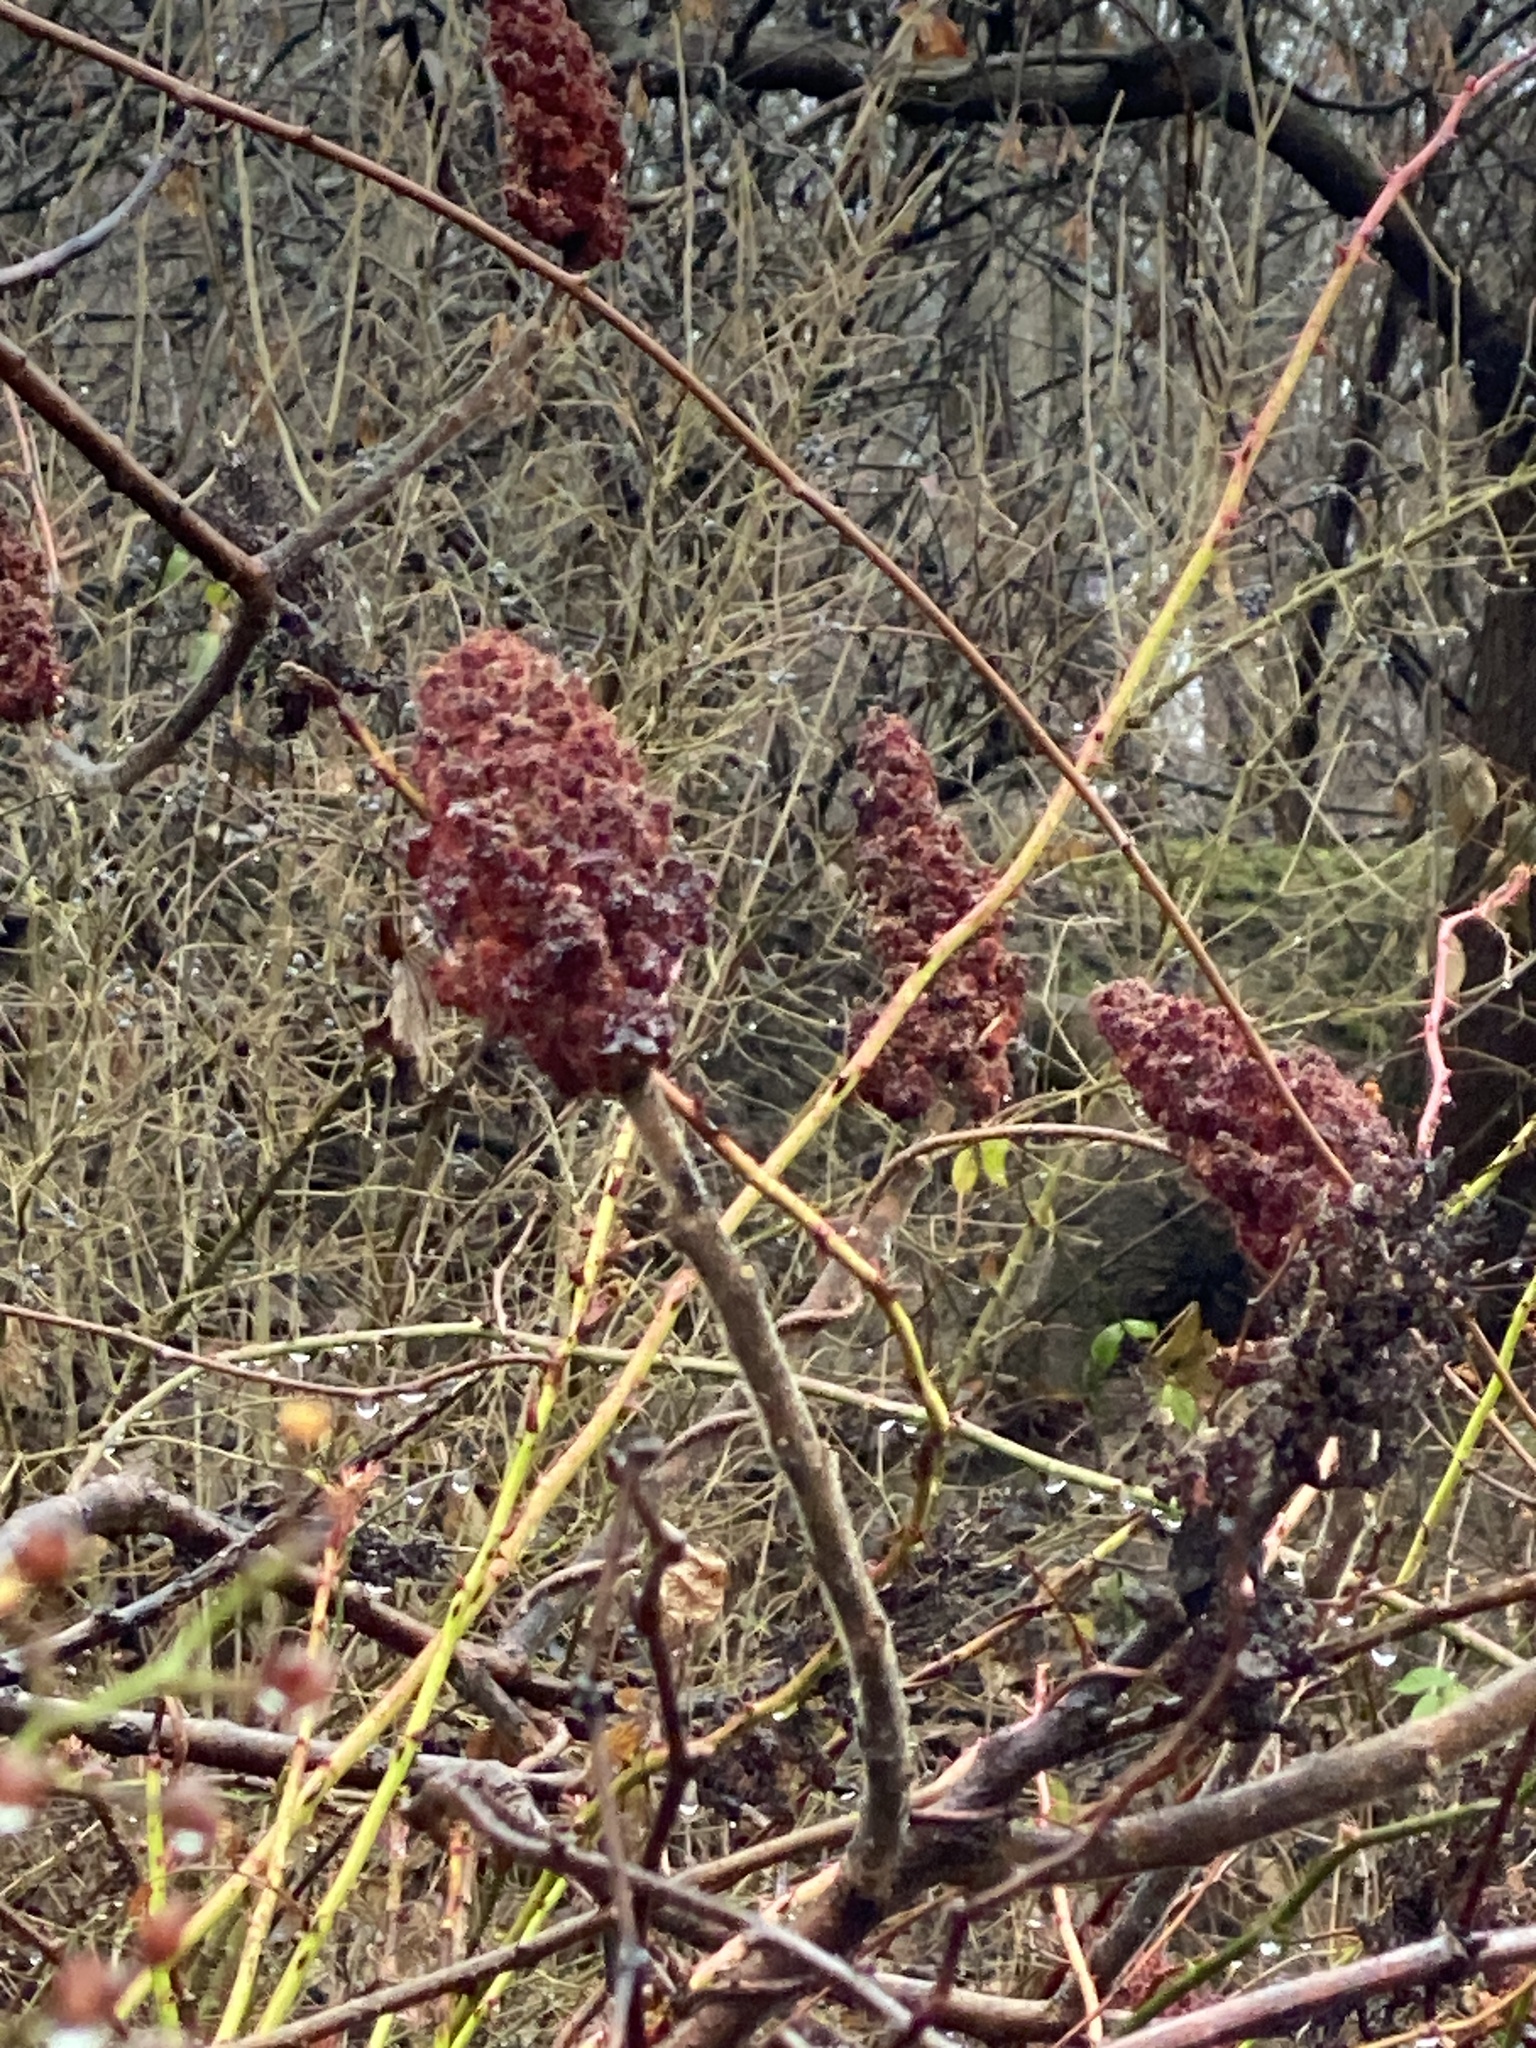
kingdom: Plantae
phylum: Tracheophyta
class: Magnoliopsida
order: Sapindales
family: Anacardiaceae
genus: Rhus
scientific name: Rhus typhina
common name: Staghorn sumac
